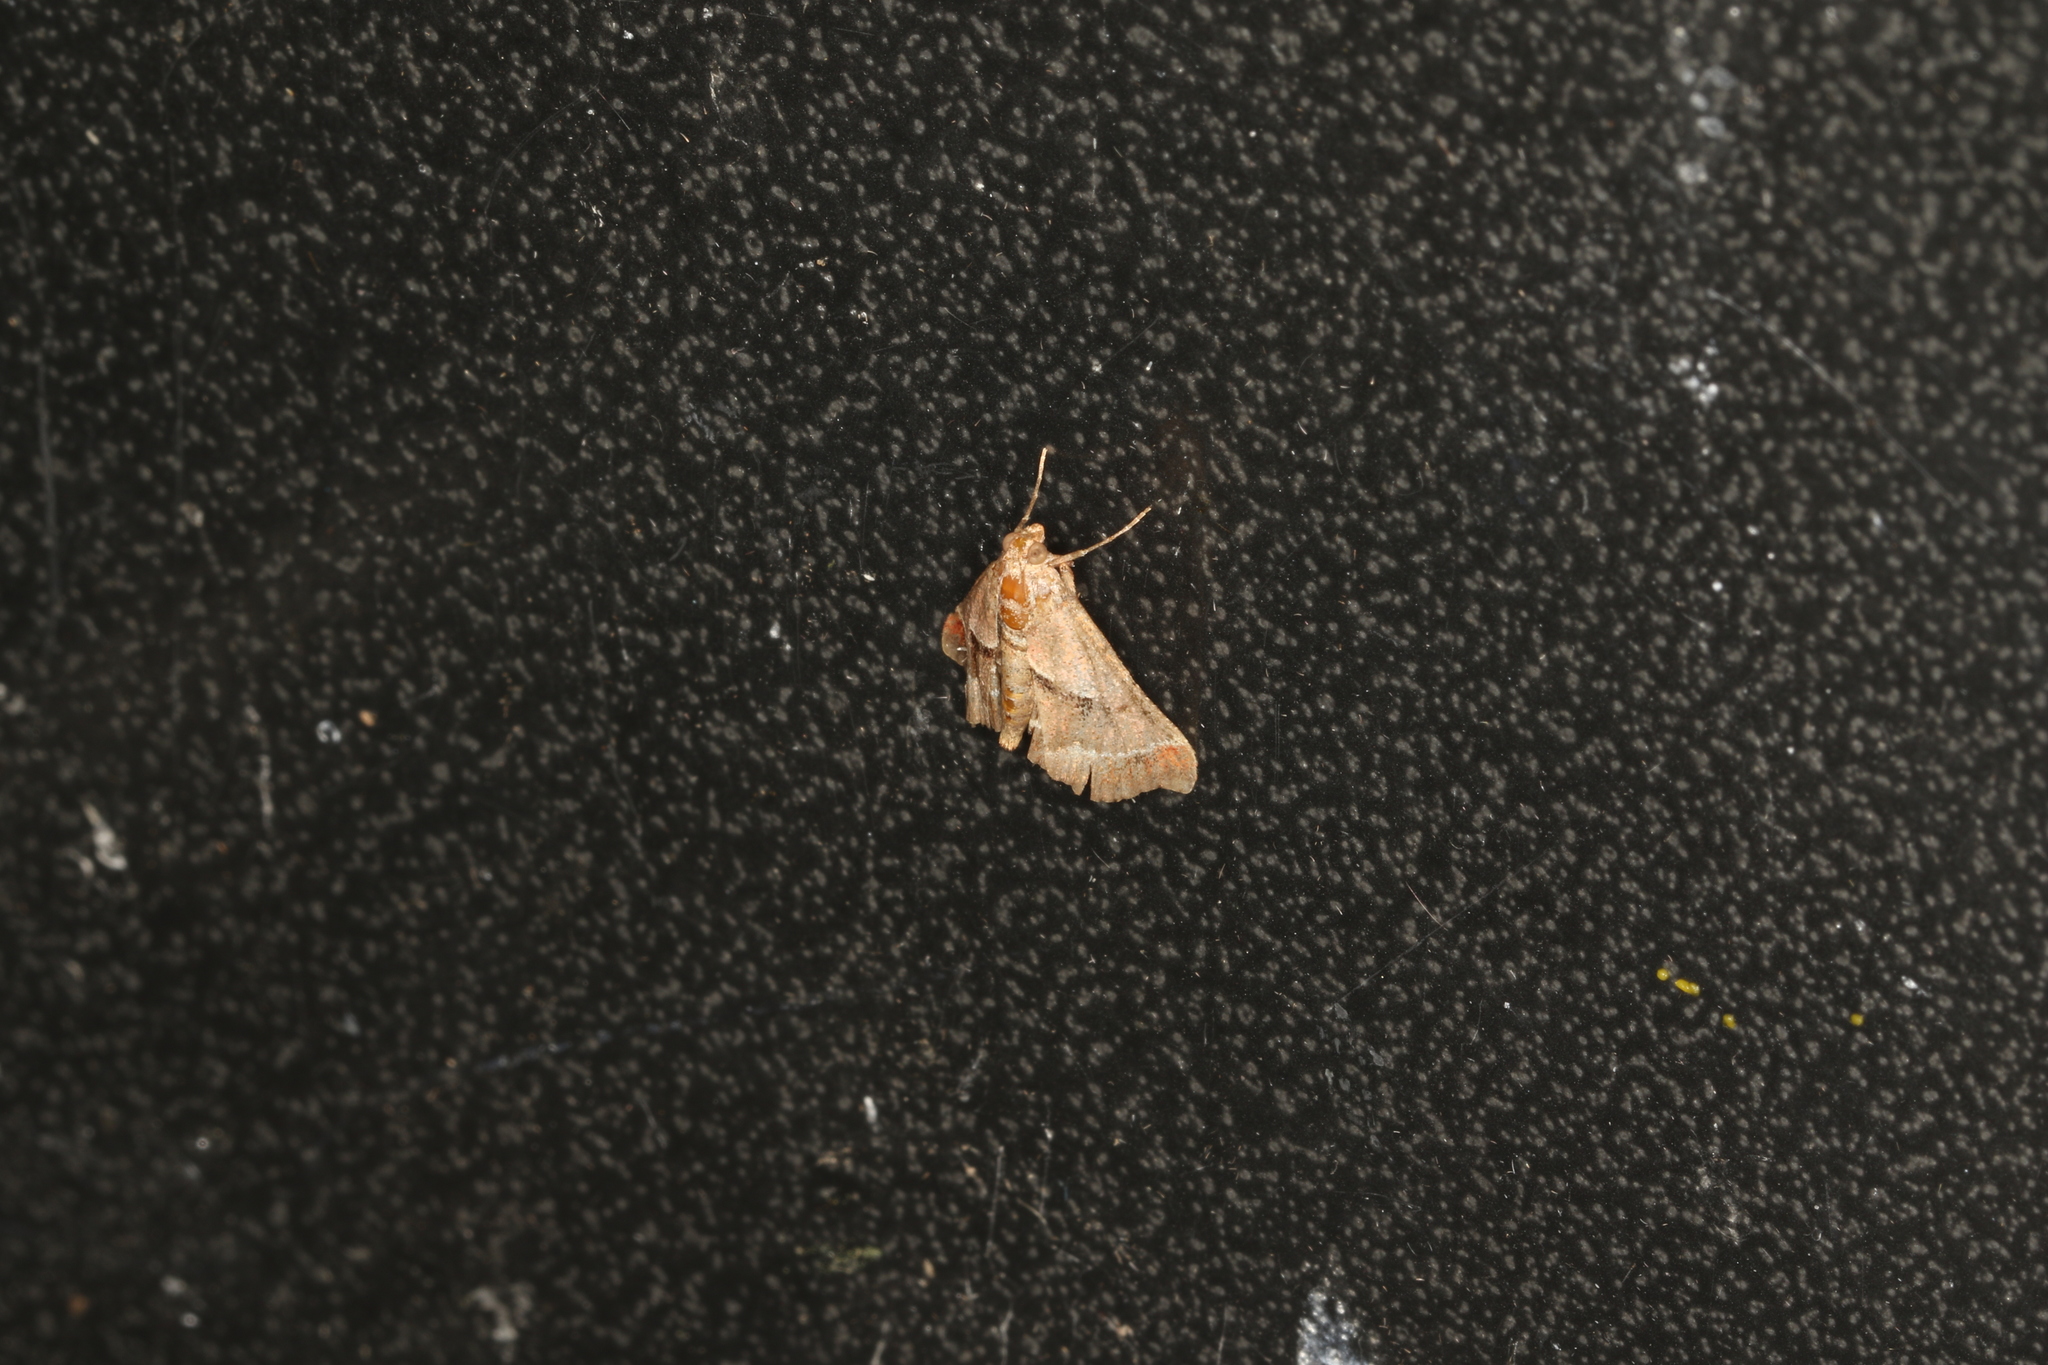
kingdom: Animalia
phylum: Arthropoda
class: Insecta
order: Lepidoptera
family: Pyralidae
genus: Gauna
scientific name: Gauna aegusalis
